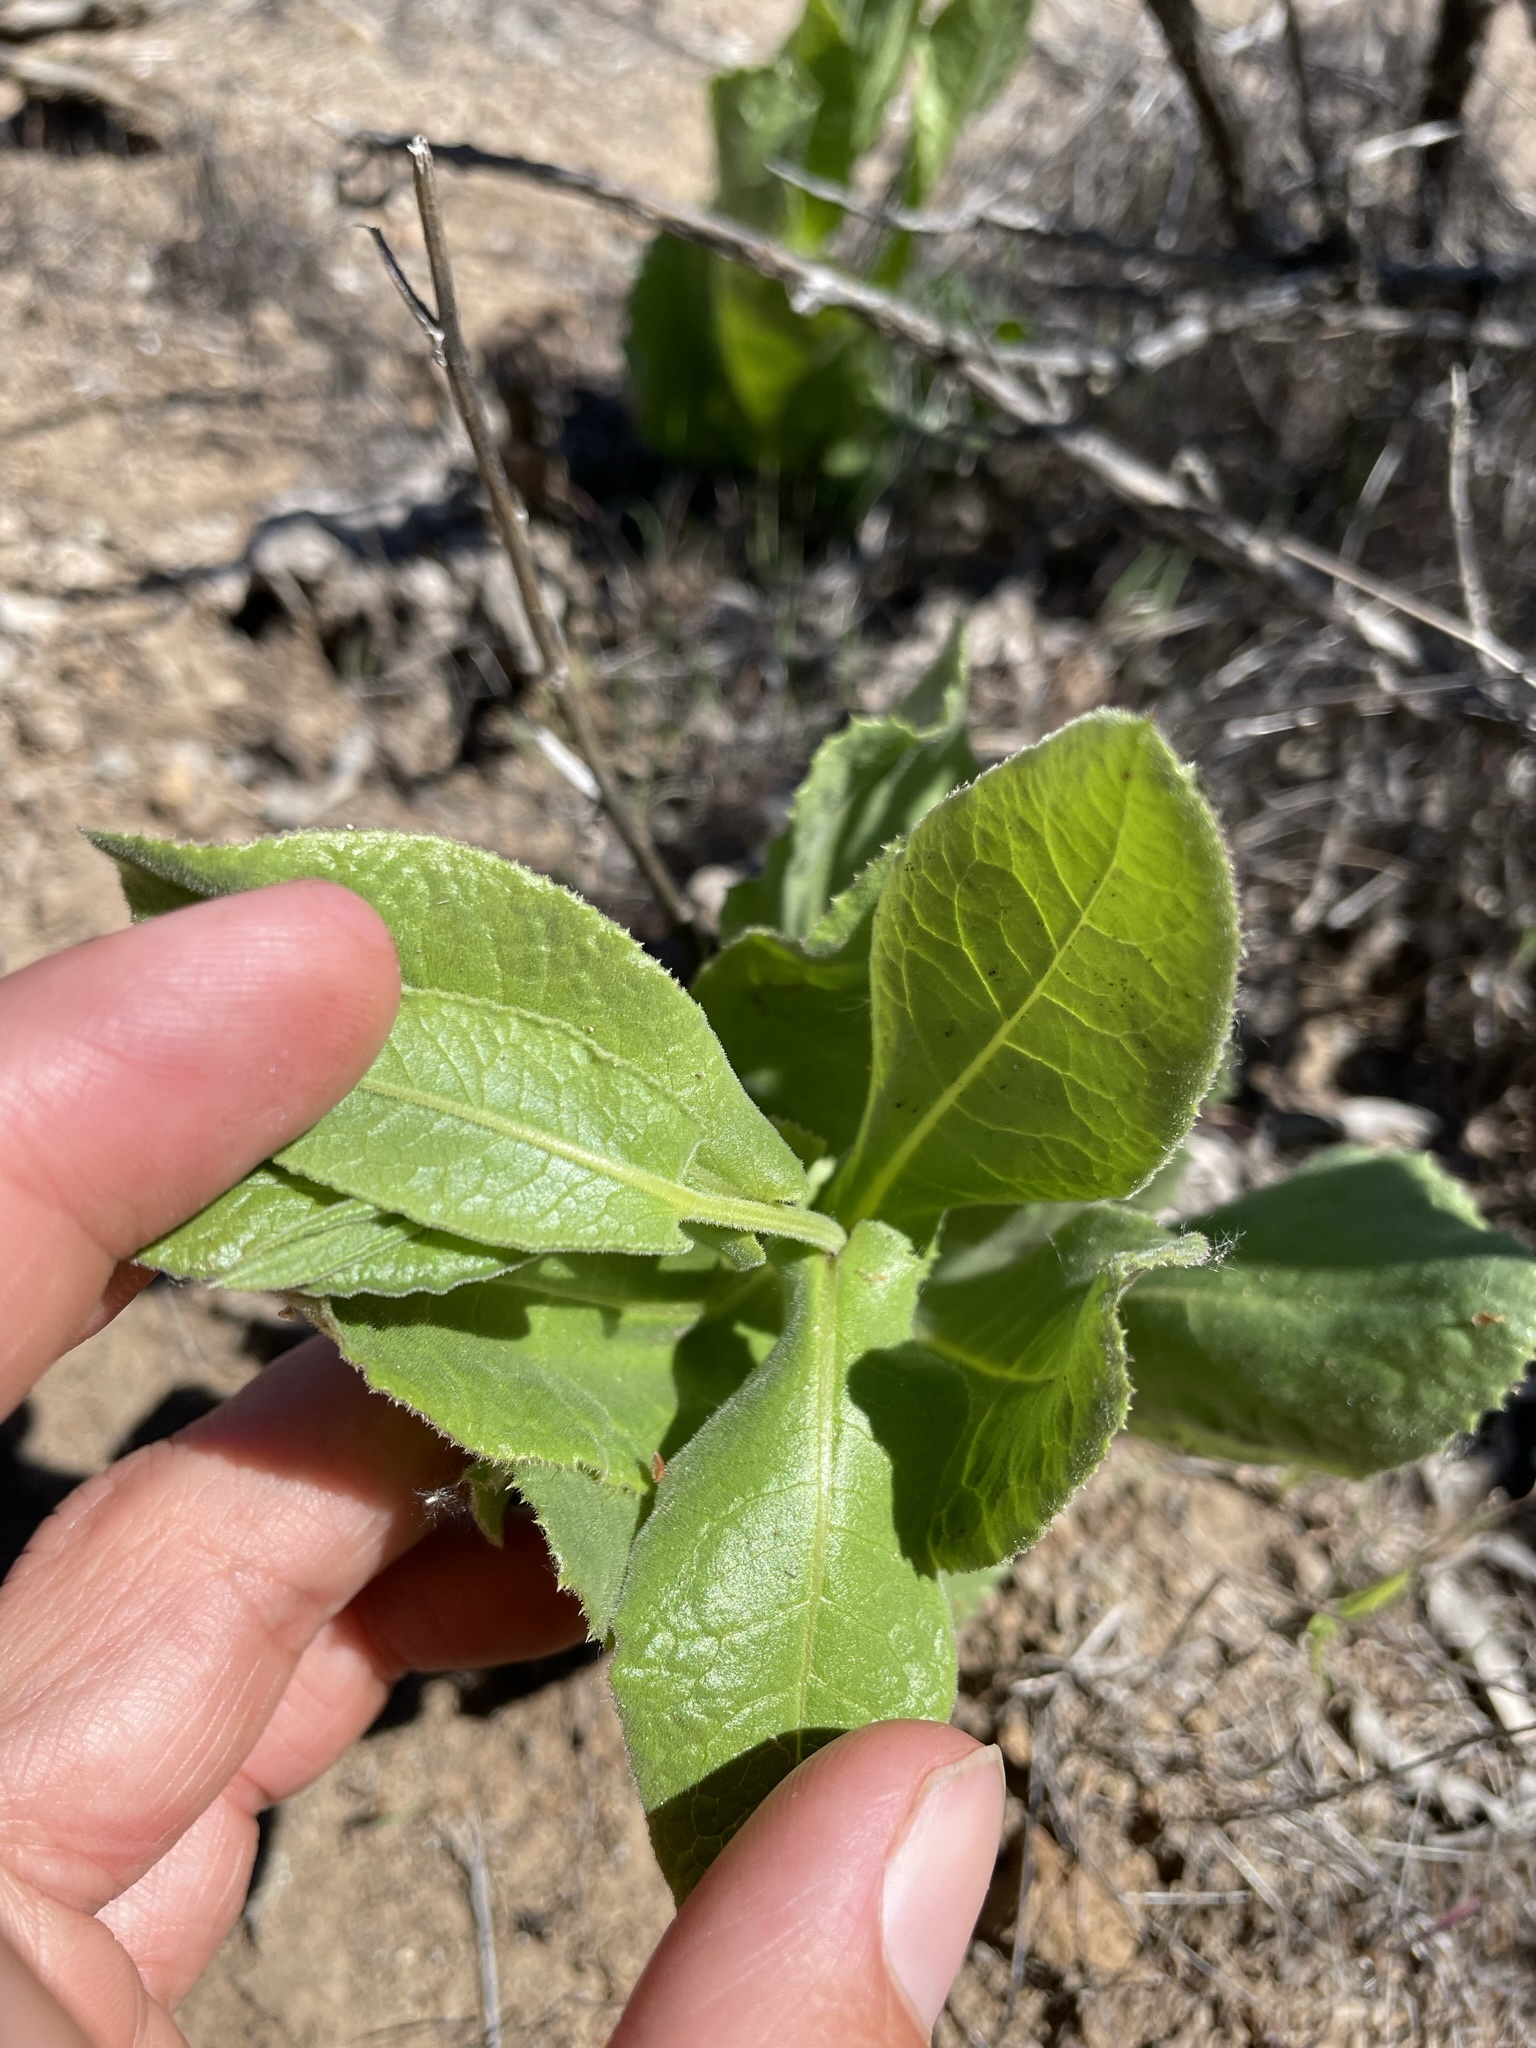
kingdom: Plantae
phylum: Tracheophyta
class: Magnoliopsida
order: Asterales
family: Asteraceae
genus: Acourtia
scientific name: Acourtia microcephala
